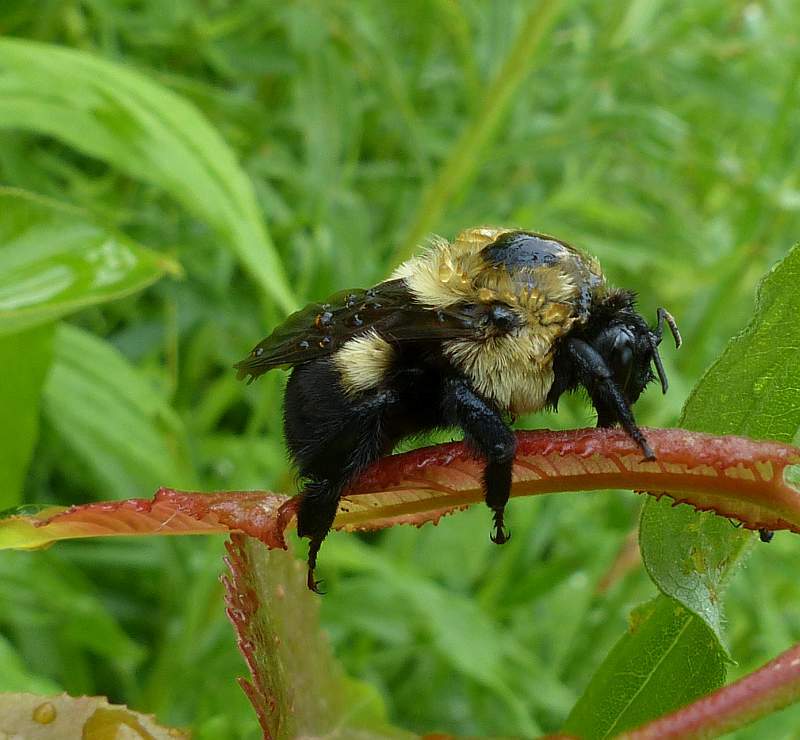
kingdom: Animalia
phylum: Arthropoda
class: Insecta
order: Hymenoptera
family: Apidae
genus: Bombus
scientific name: Bombus griseocollis
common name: Brown-belted bumble bee
